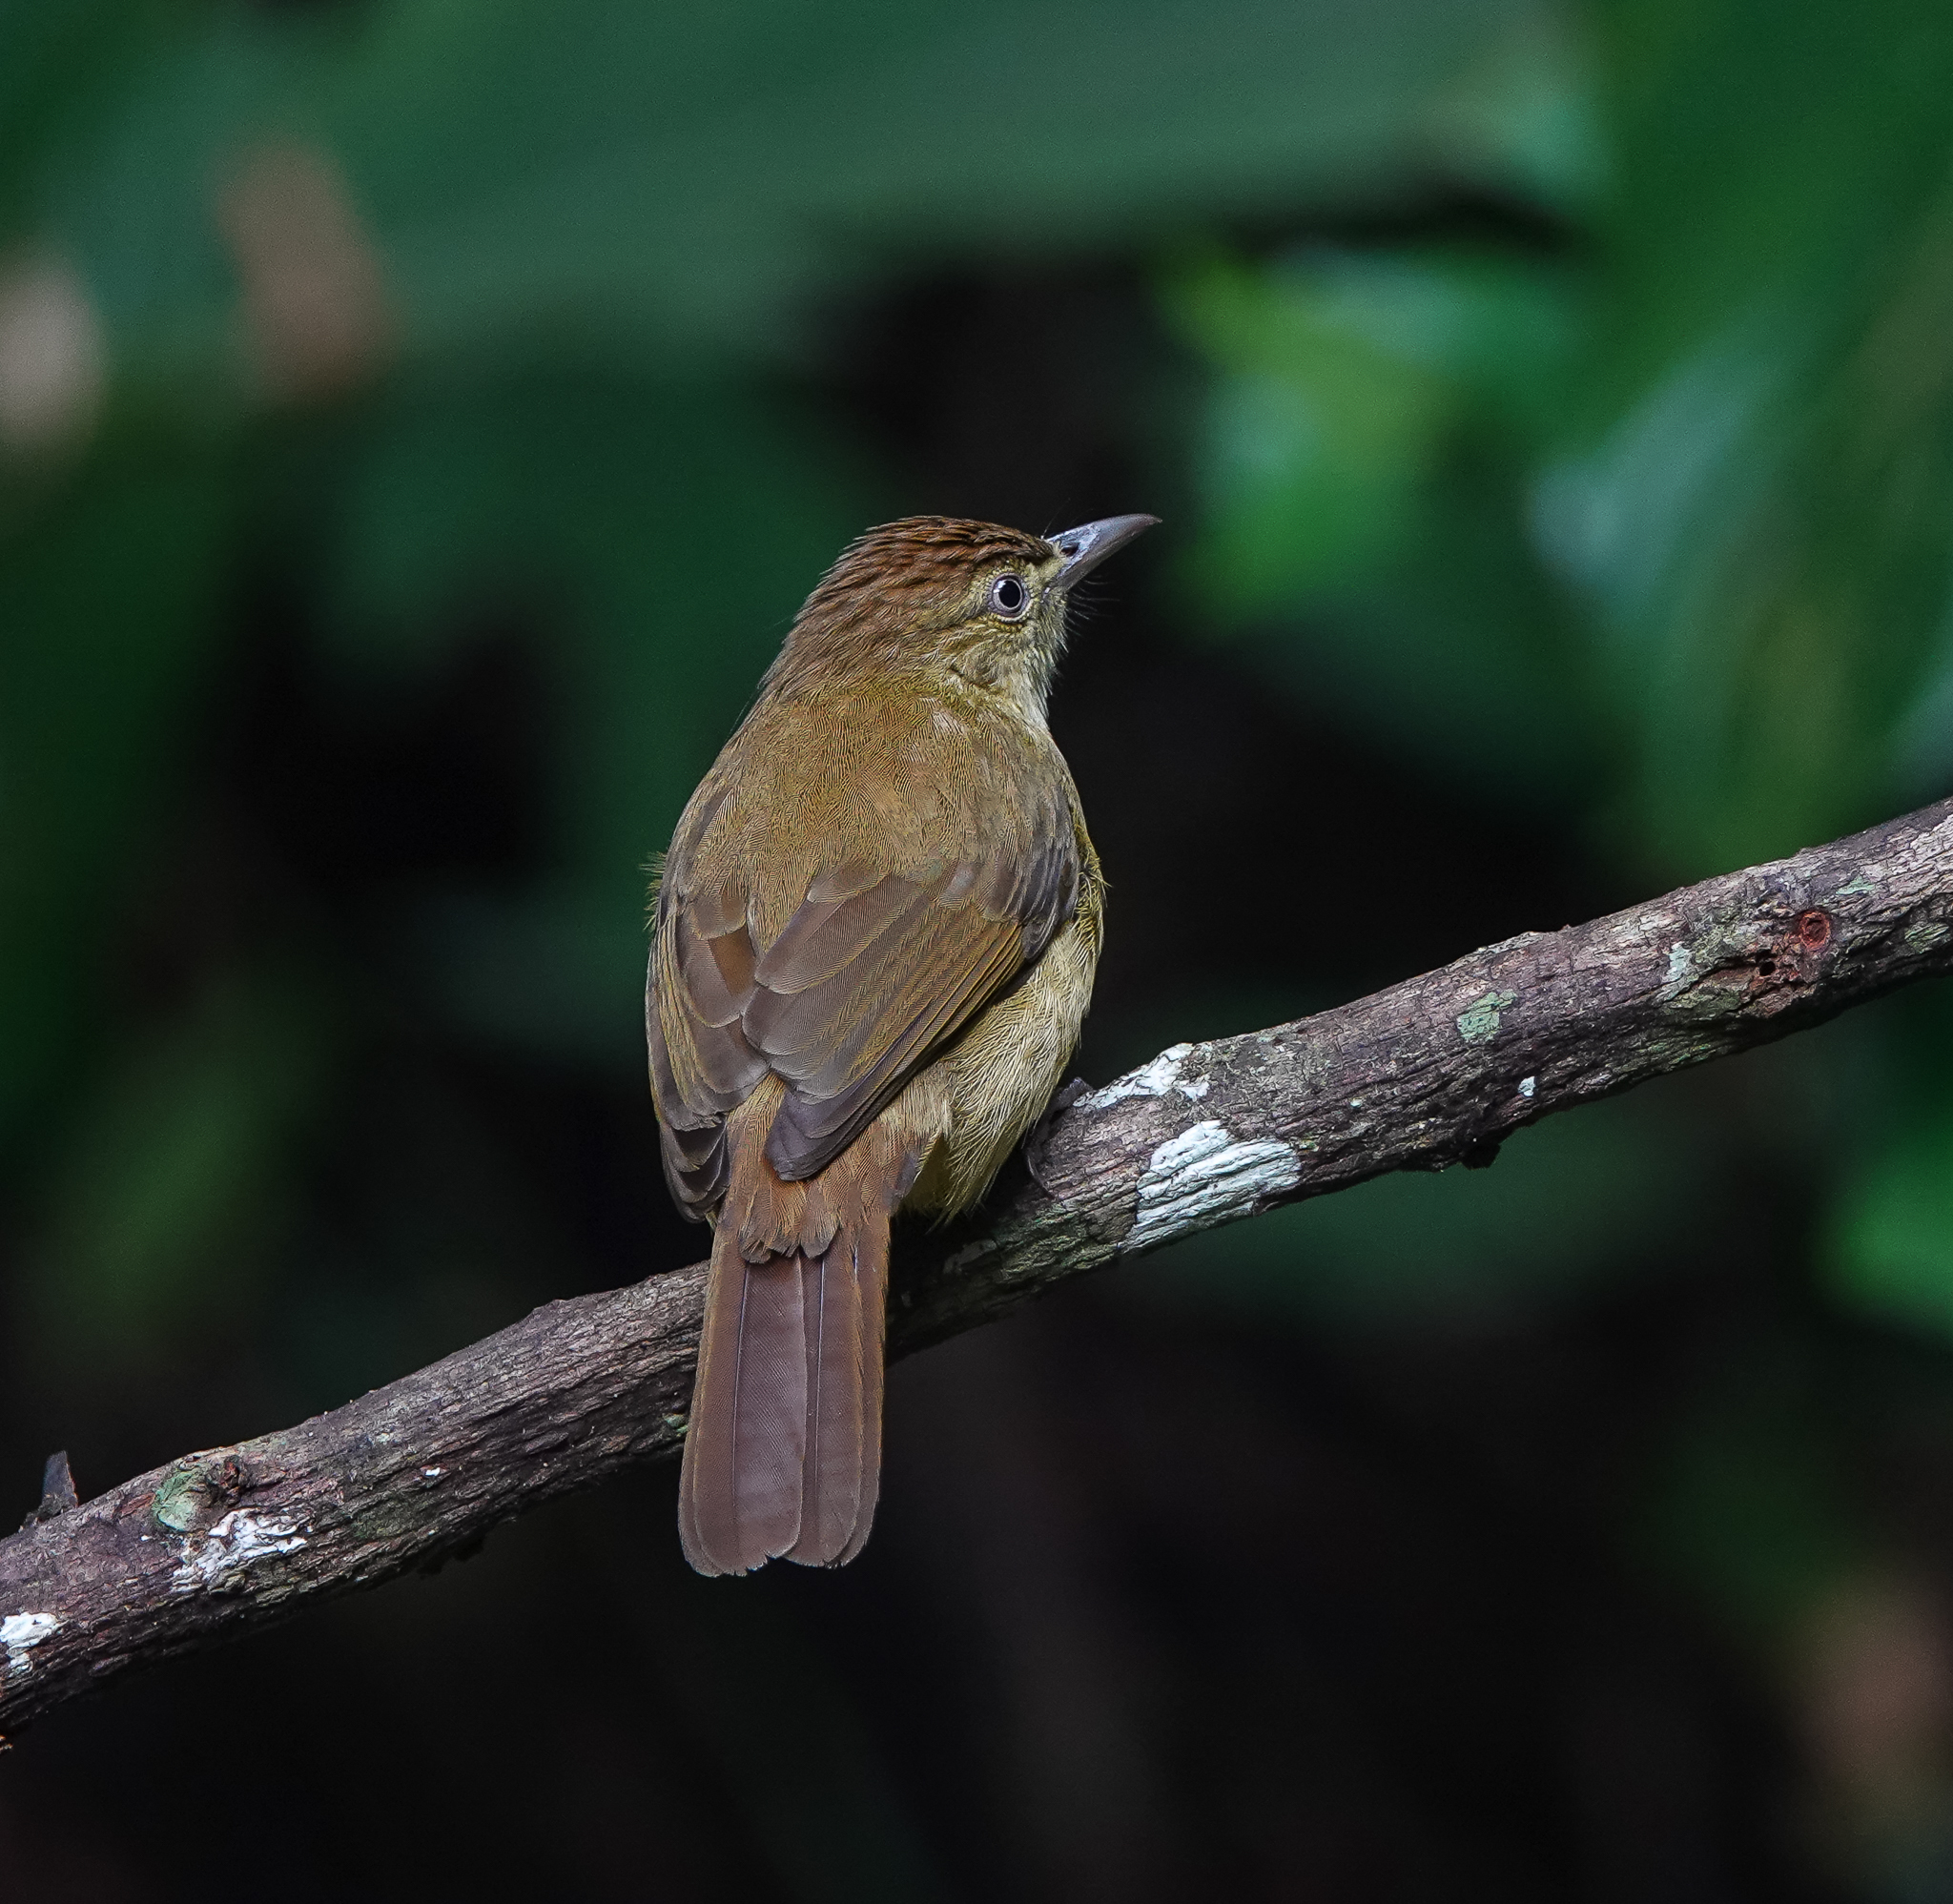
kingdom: Animalia
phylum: Chordata
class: Aves
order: Passeriformes
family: Pycnonotidae
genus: Iole
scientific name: Iole virescens
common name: Olive bulbul
